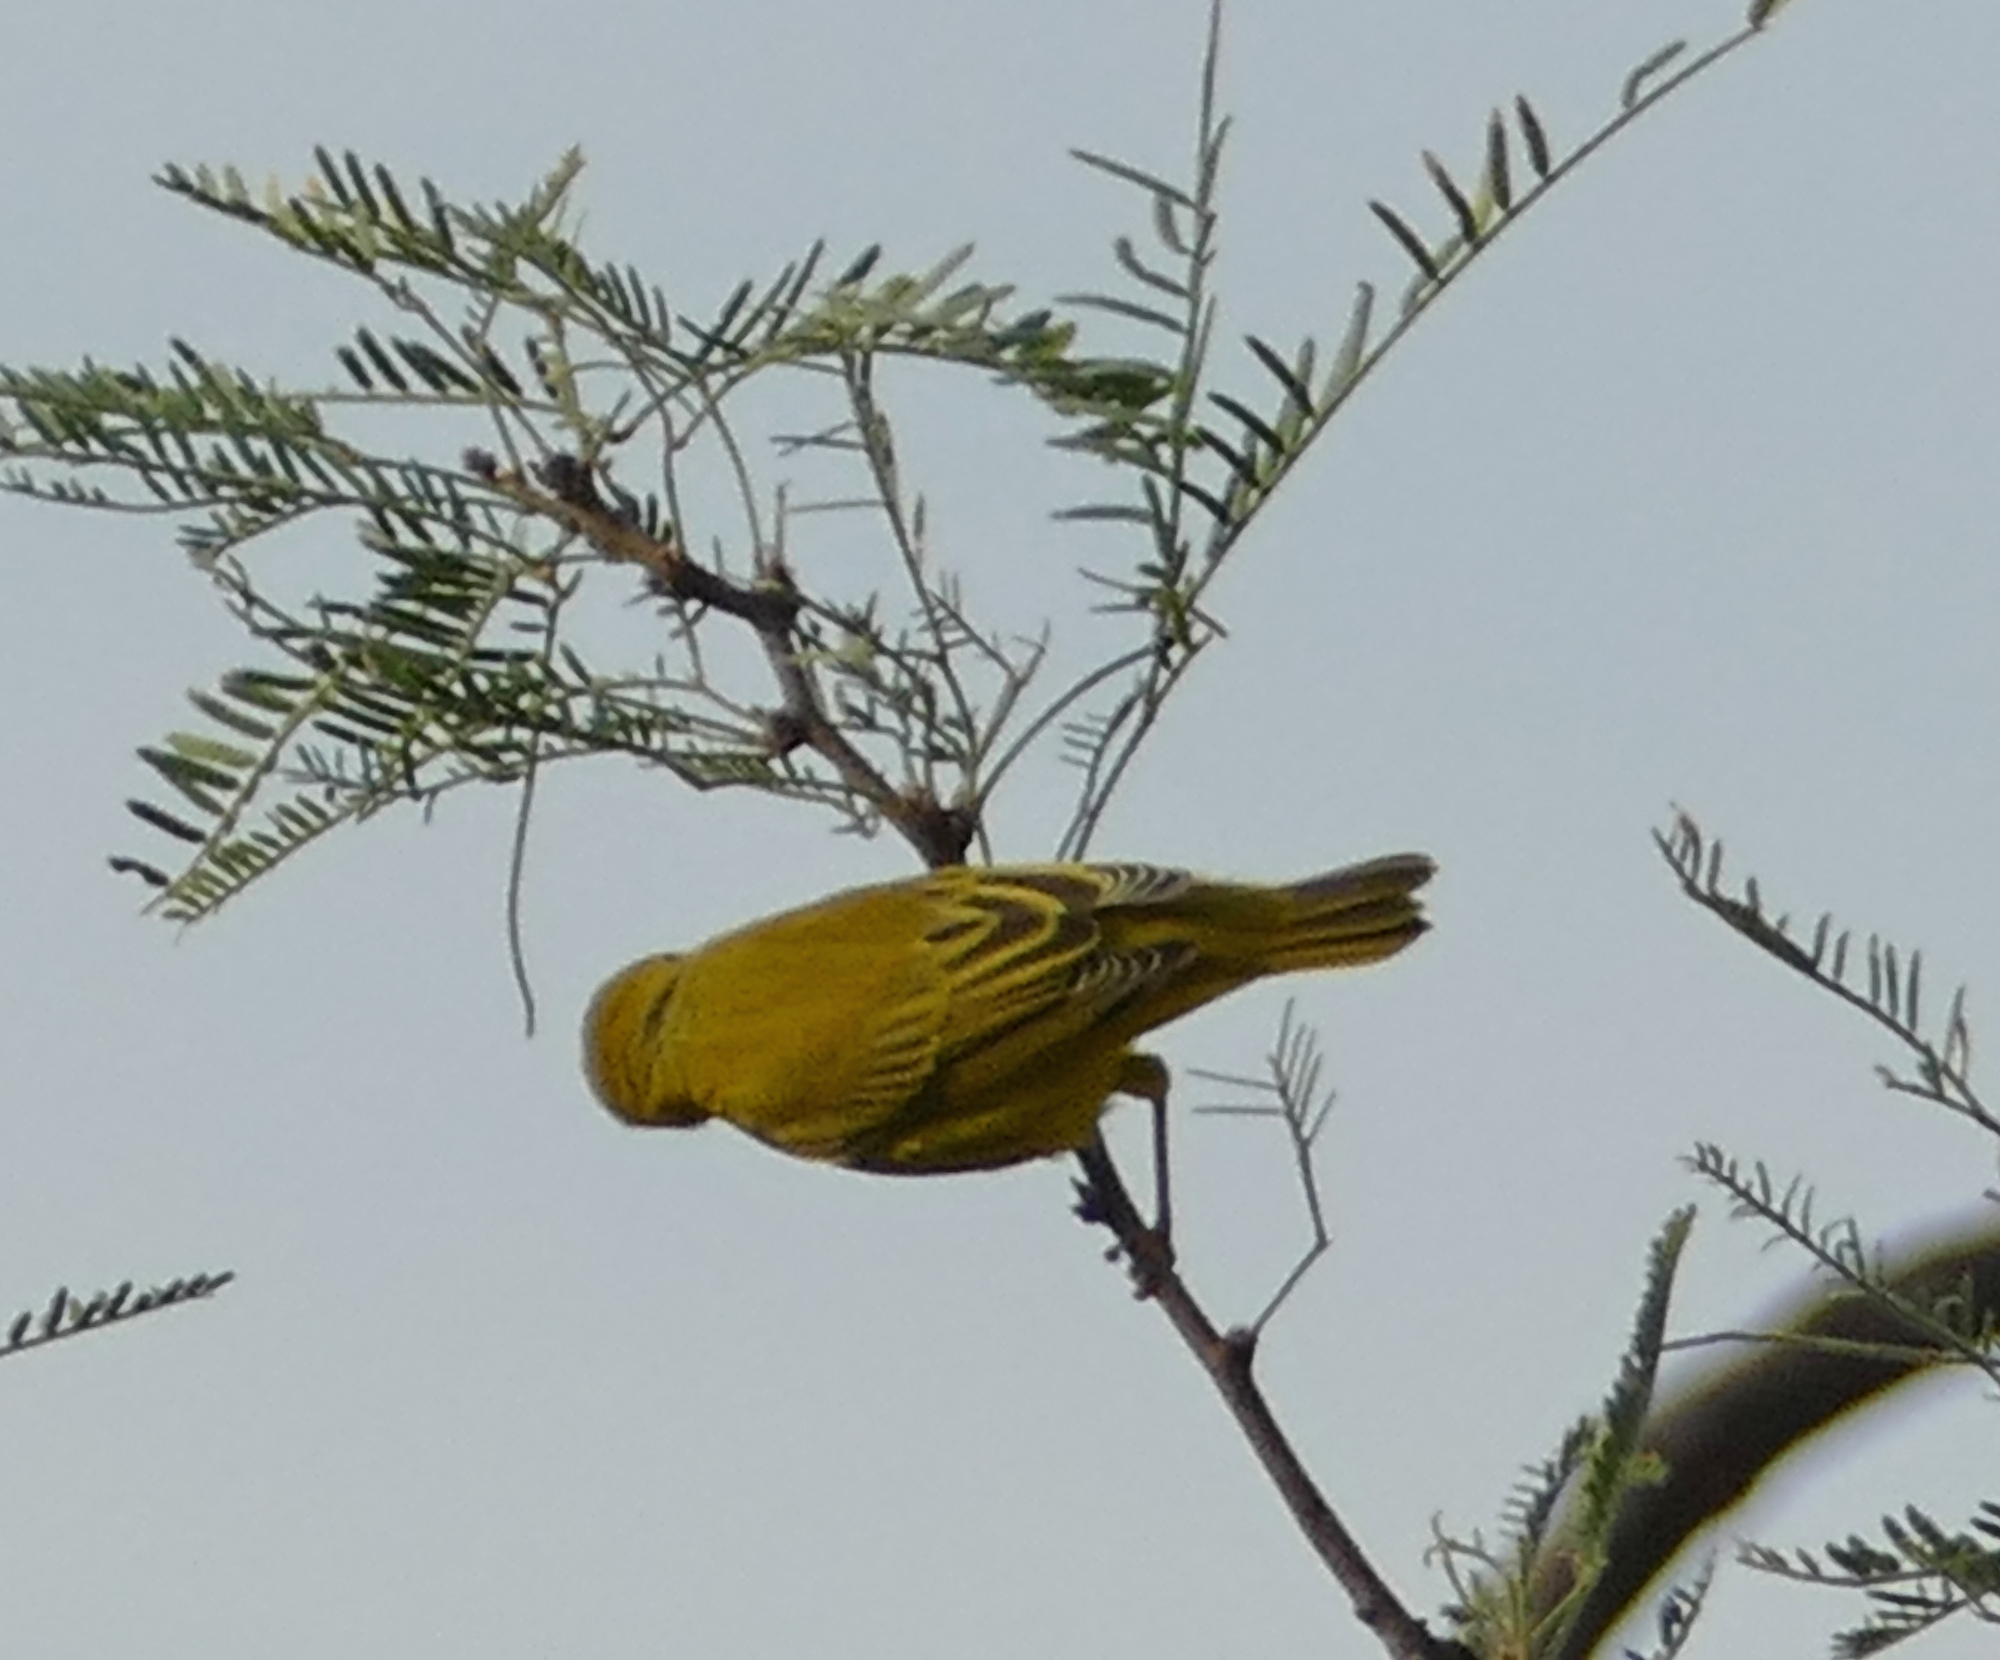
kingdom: Animalia
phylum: Chordata
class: Aves
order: Passeriformes
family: Parulidae
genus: Setophaga
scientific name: Setophaga petechia
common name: Yellow warbler
